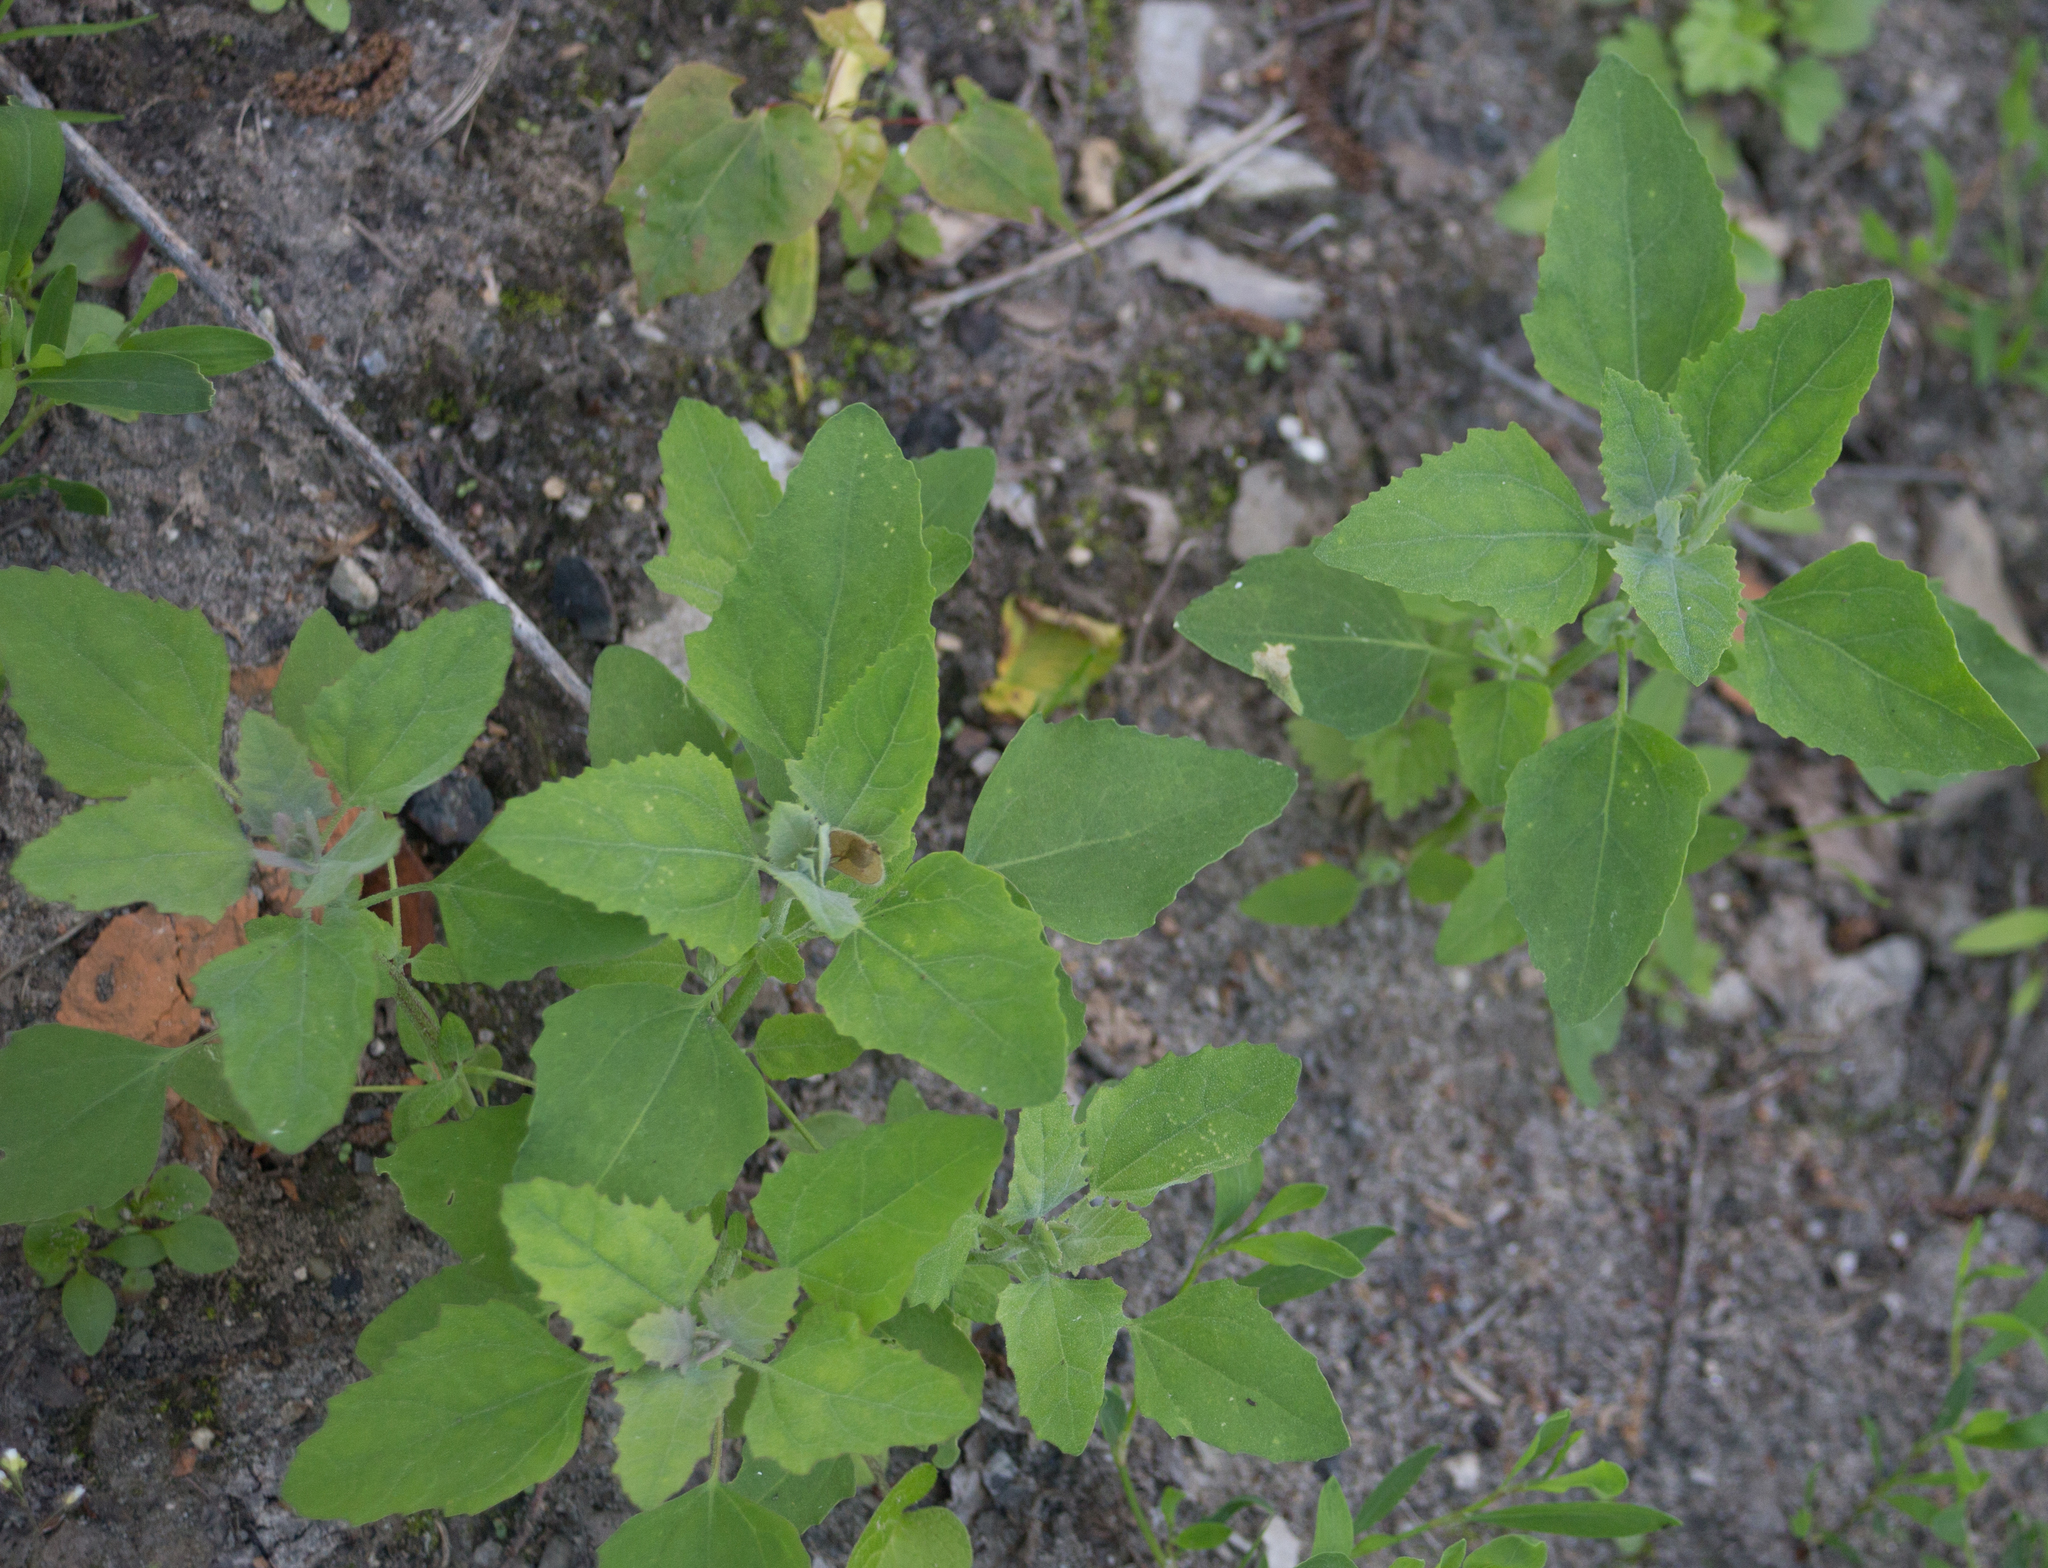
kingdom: Plantae
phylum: Tracheophyta
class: Magnoliopsida
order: Caryophyllales
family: Amaranthaceae
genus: Chenopodium
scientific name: Chenopodium album
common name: Fat-hen
